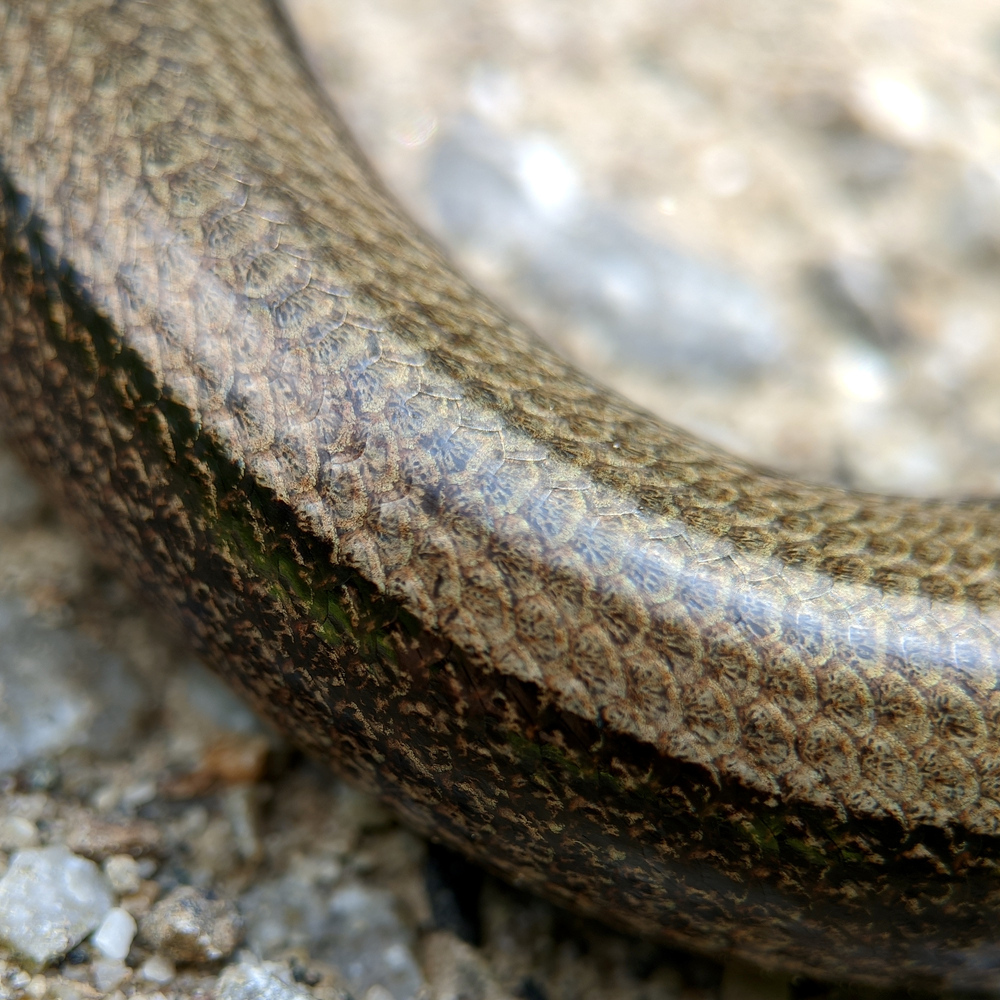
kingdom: Animalia
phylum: Chordata
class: Squamata
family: Anguidae
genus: Anguis
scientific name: Anguis fragilis
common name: Slow worm
